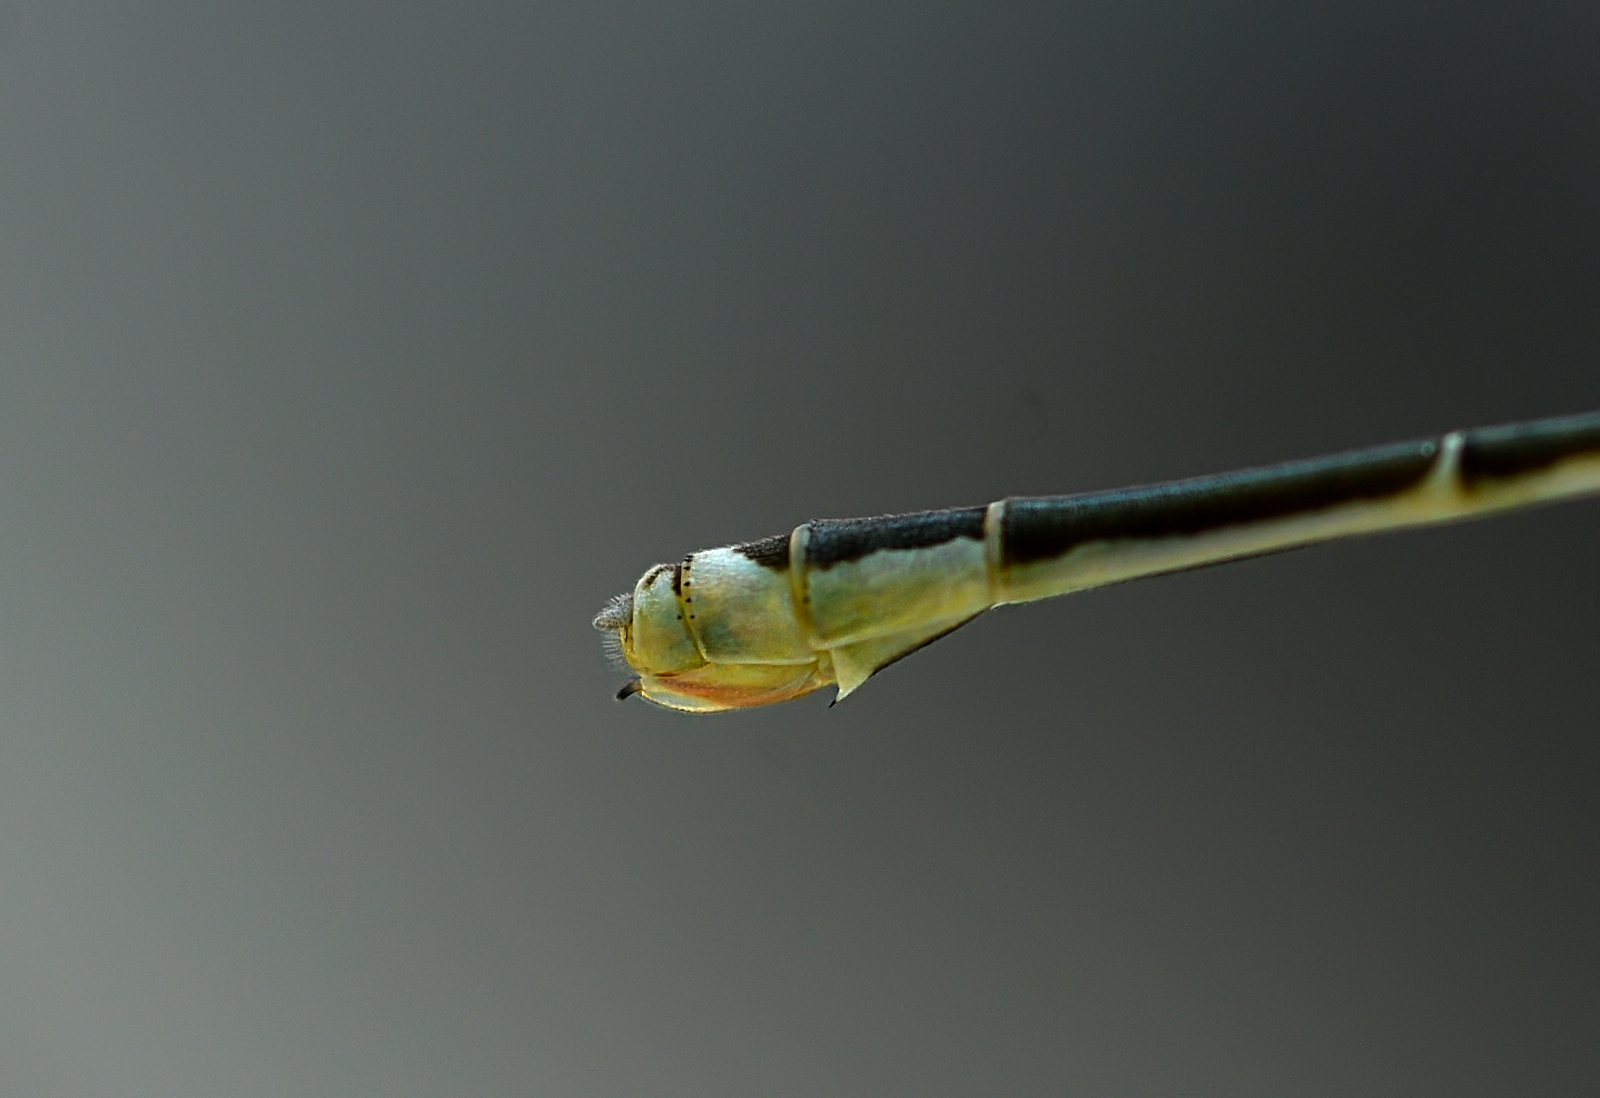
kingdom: Animalia
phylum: Arthropoda
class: Insecta
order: Odonata
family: Coenagrionidae
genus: Aciagrion
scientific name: Aciagrion occidentale
